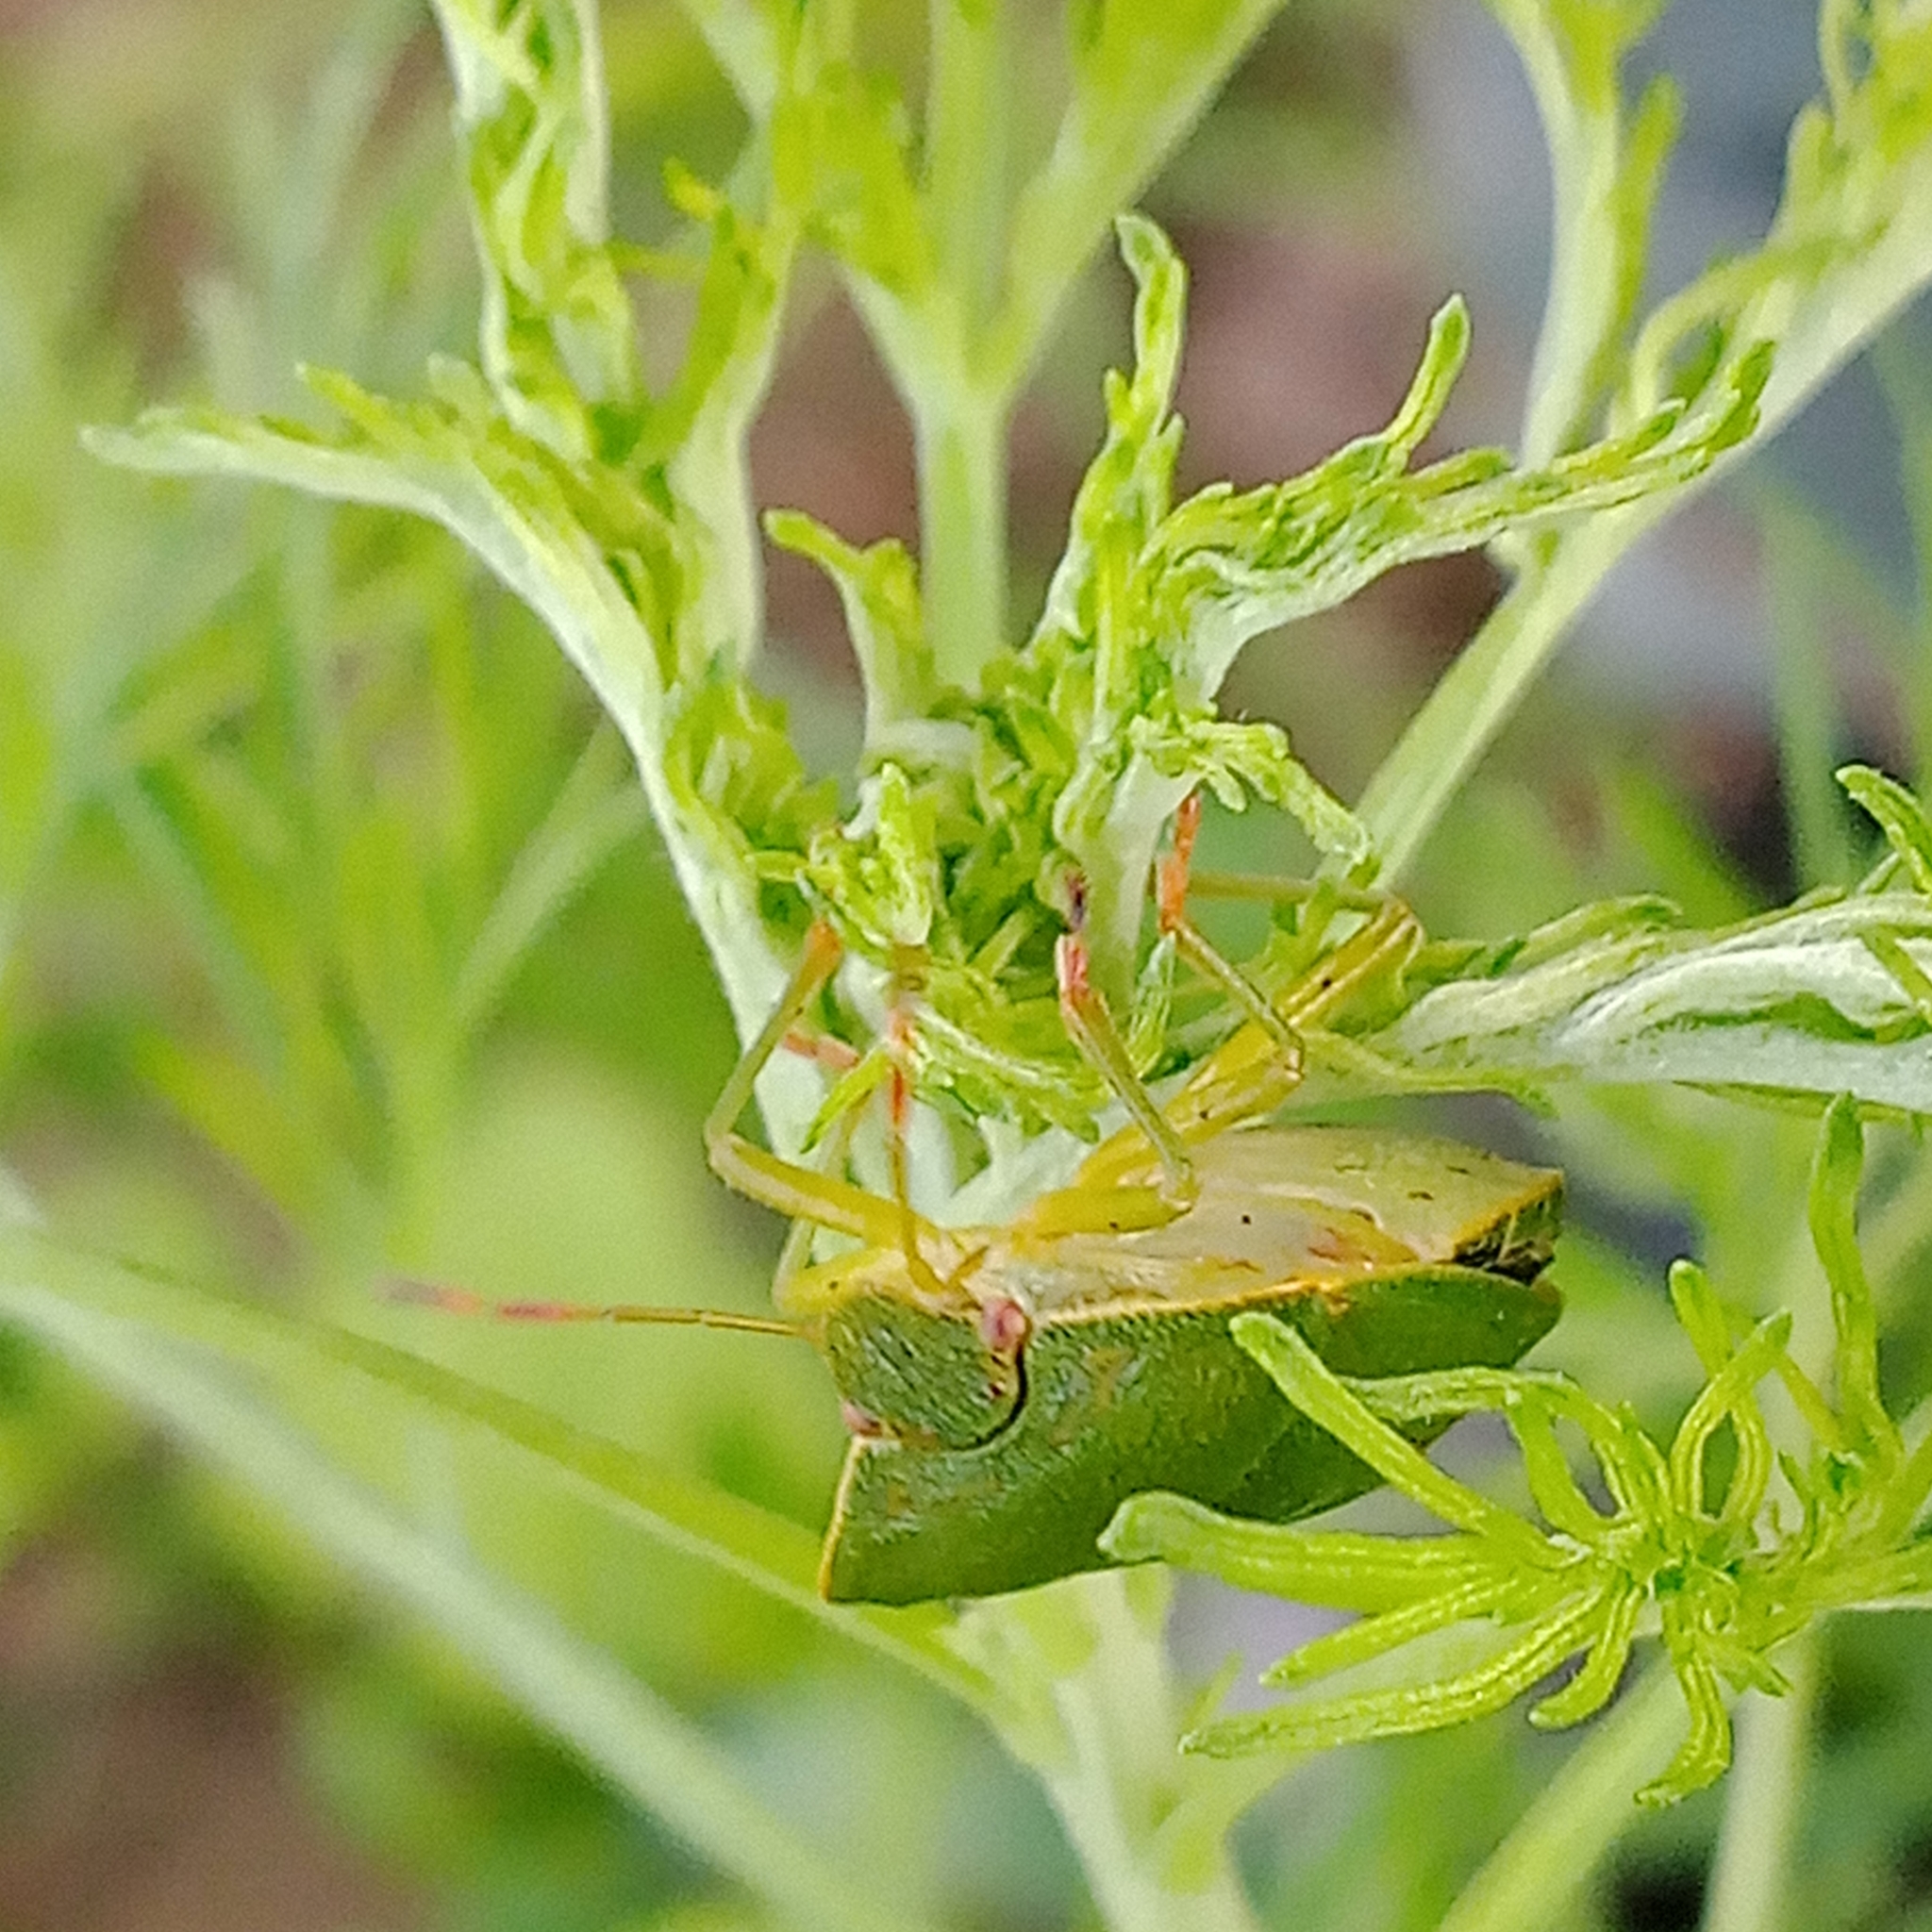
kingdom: Animalia
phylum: Arthropoda
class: Insecta
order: Hemiptera
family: Pentatomidae
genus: Palomena
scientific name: Palomena prasina
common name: Green shieldbug
